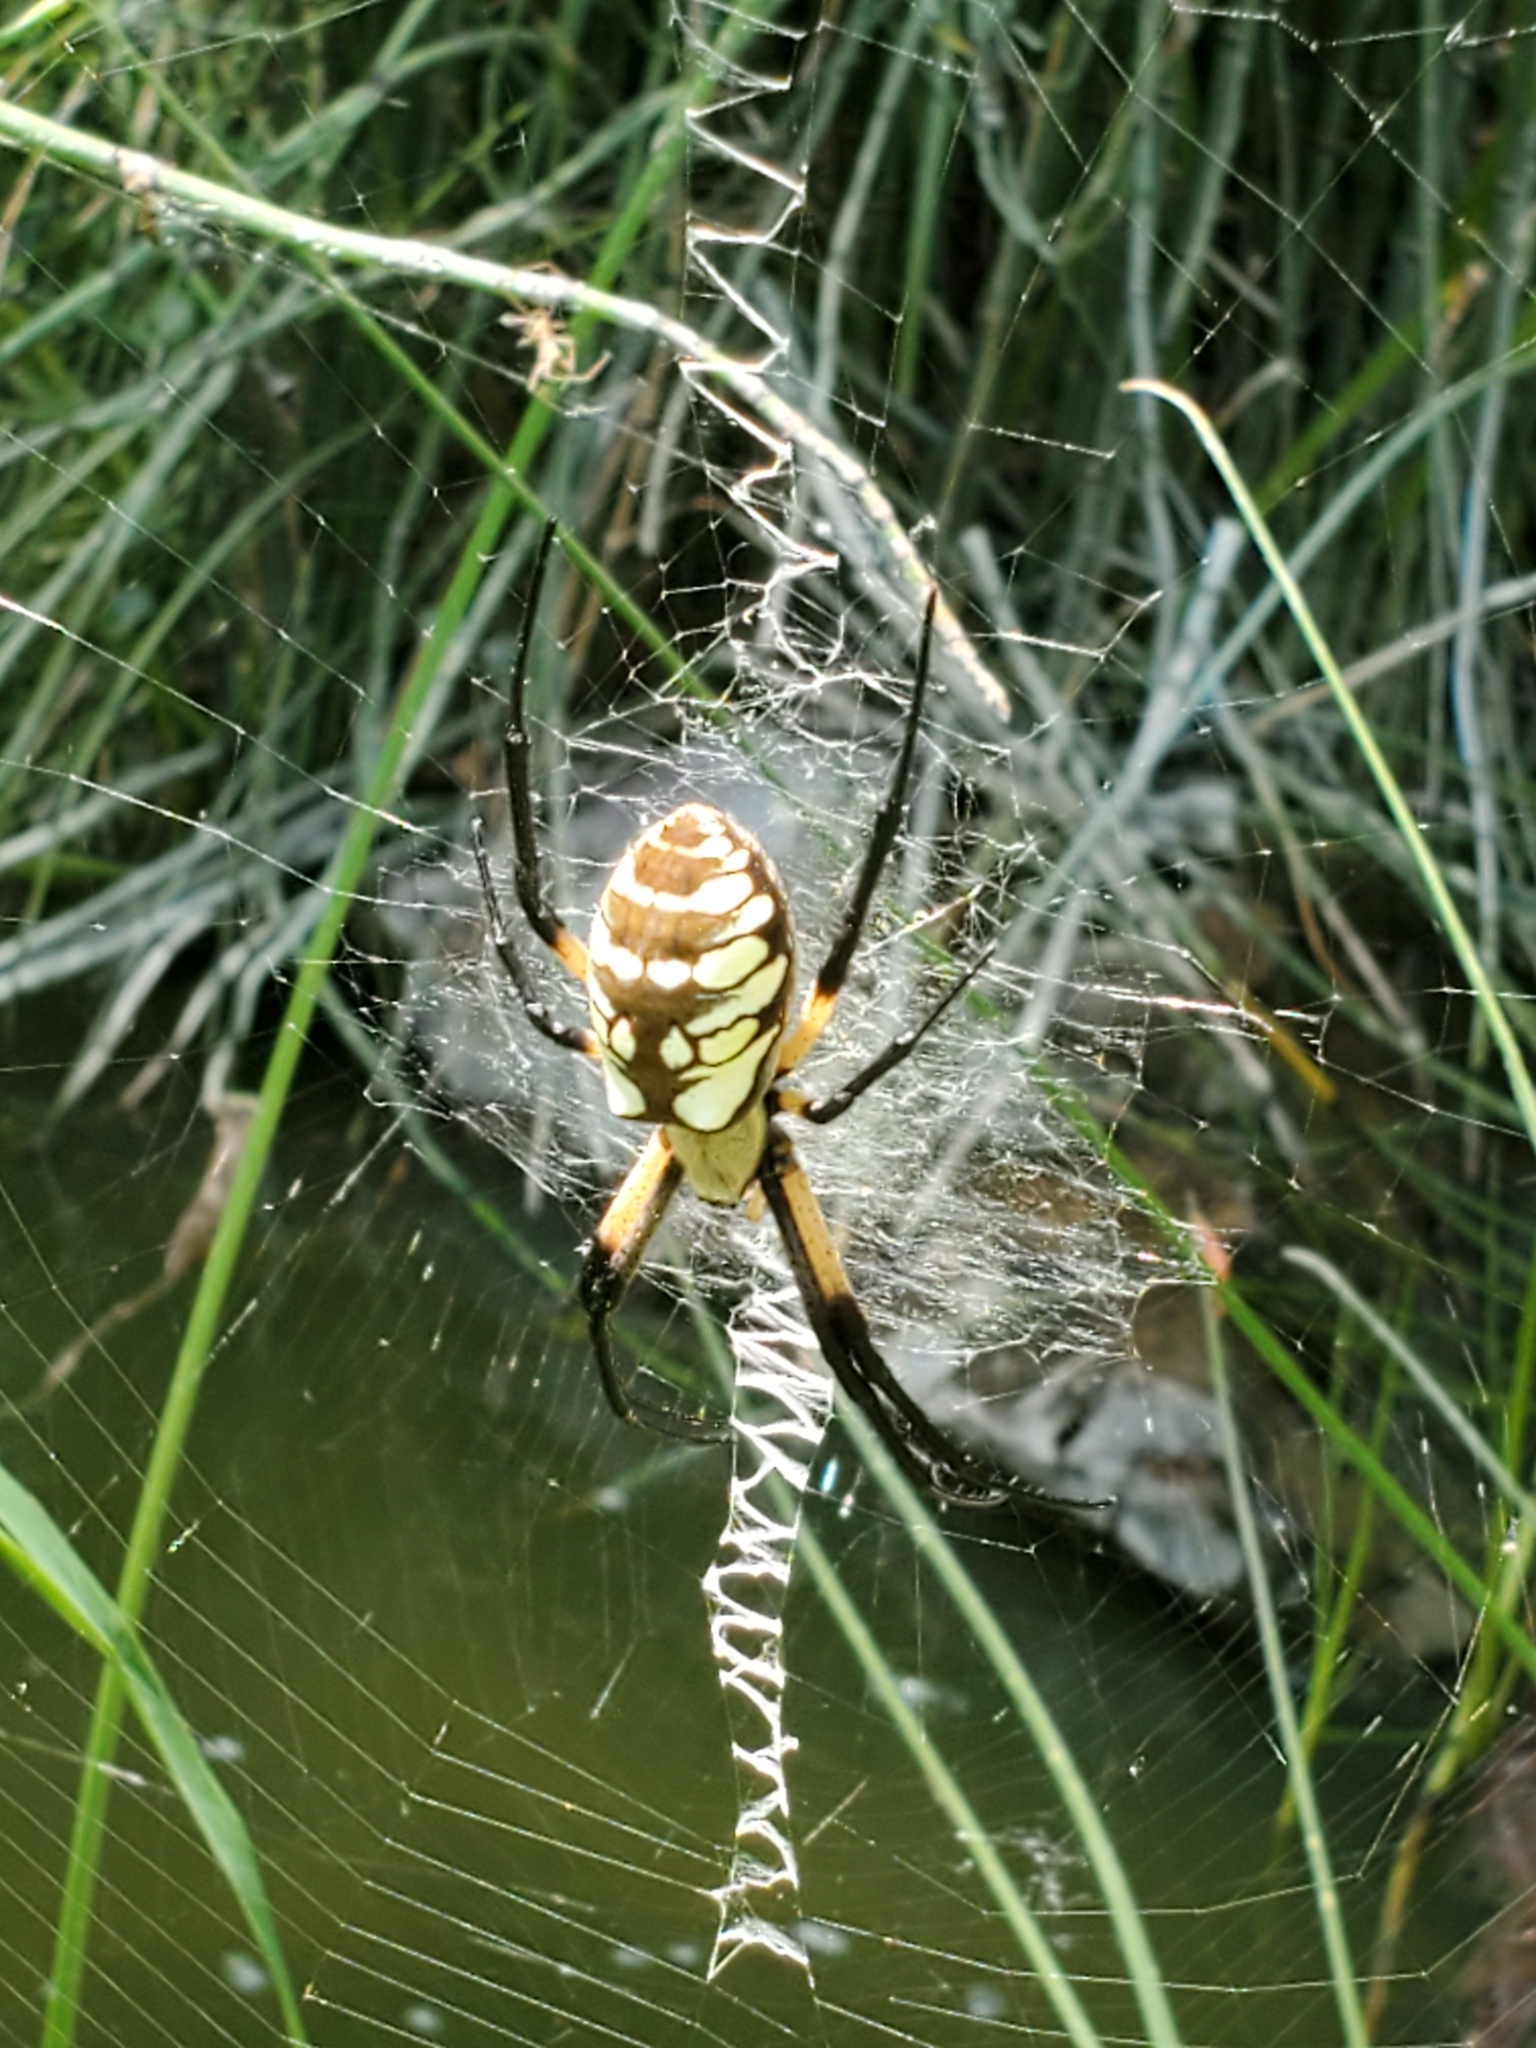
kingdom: Animalia
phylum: Arthropoda
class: Arachnida
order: Araneae
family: Araneidae
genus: Argiope
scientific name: Argiope aurantia
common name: Orb weavers
